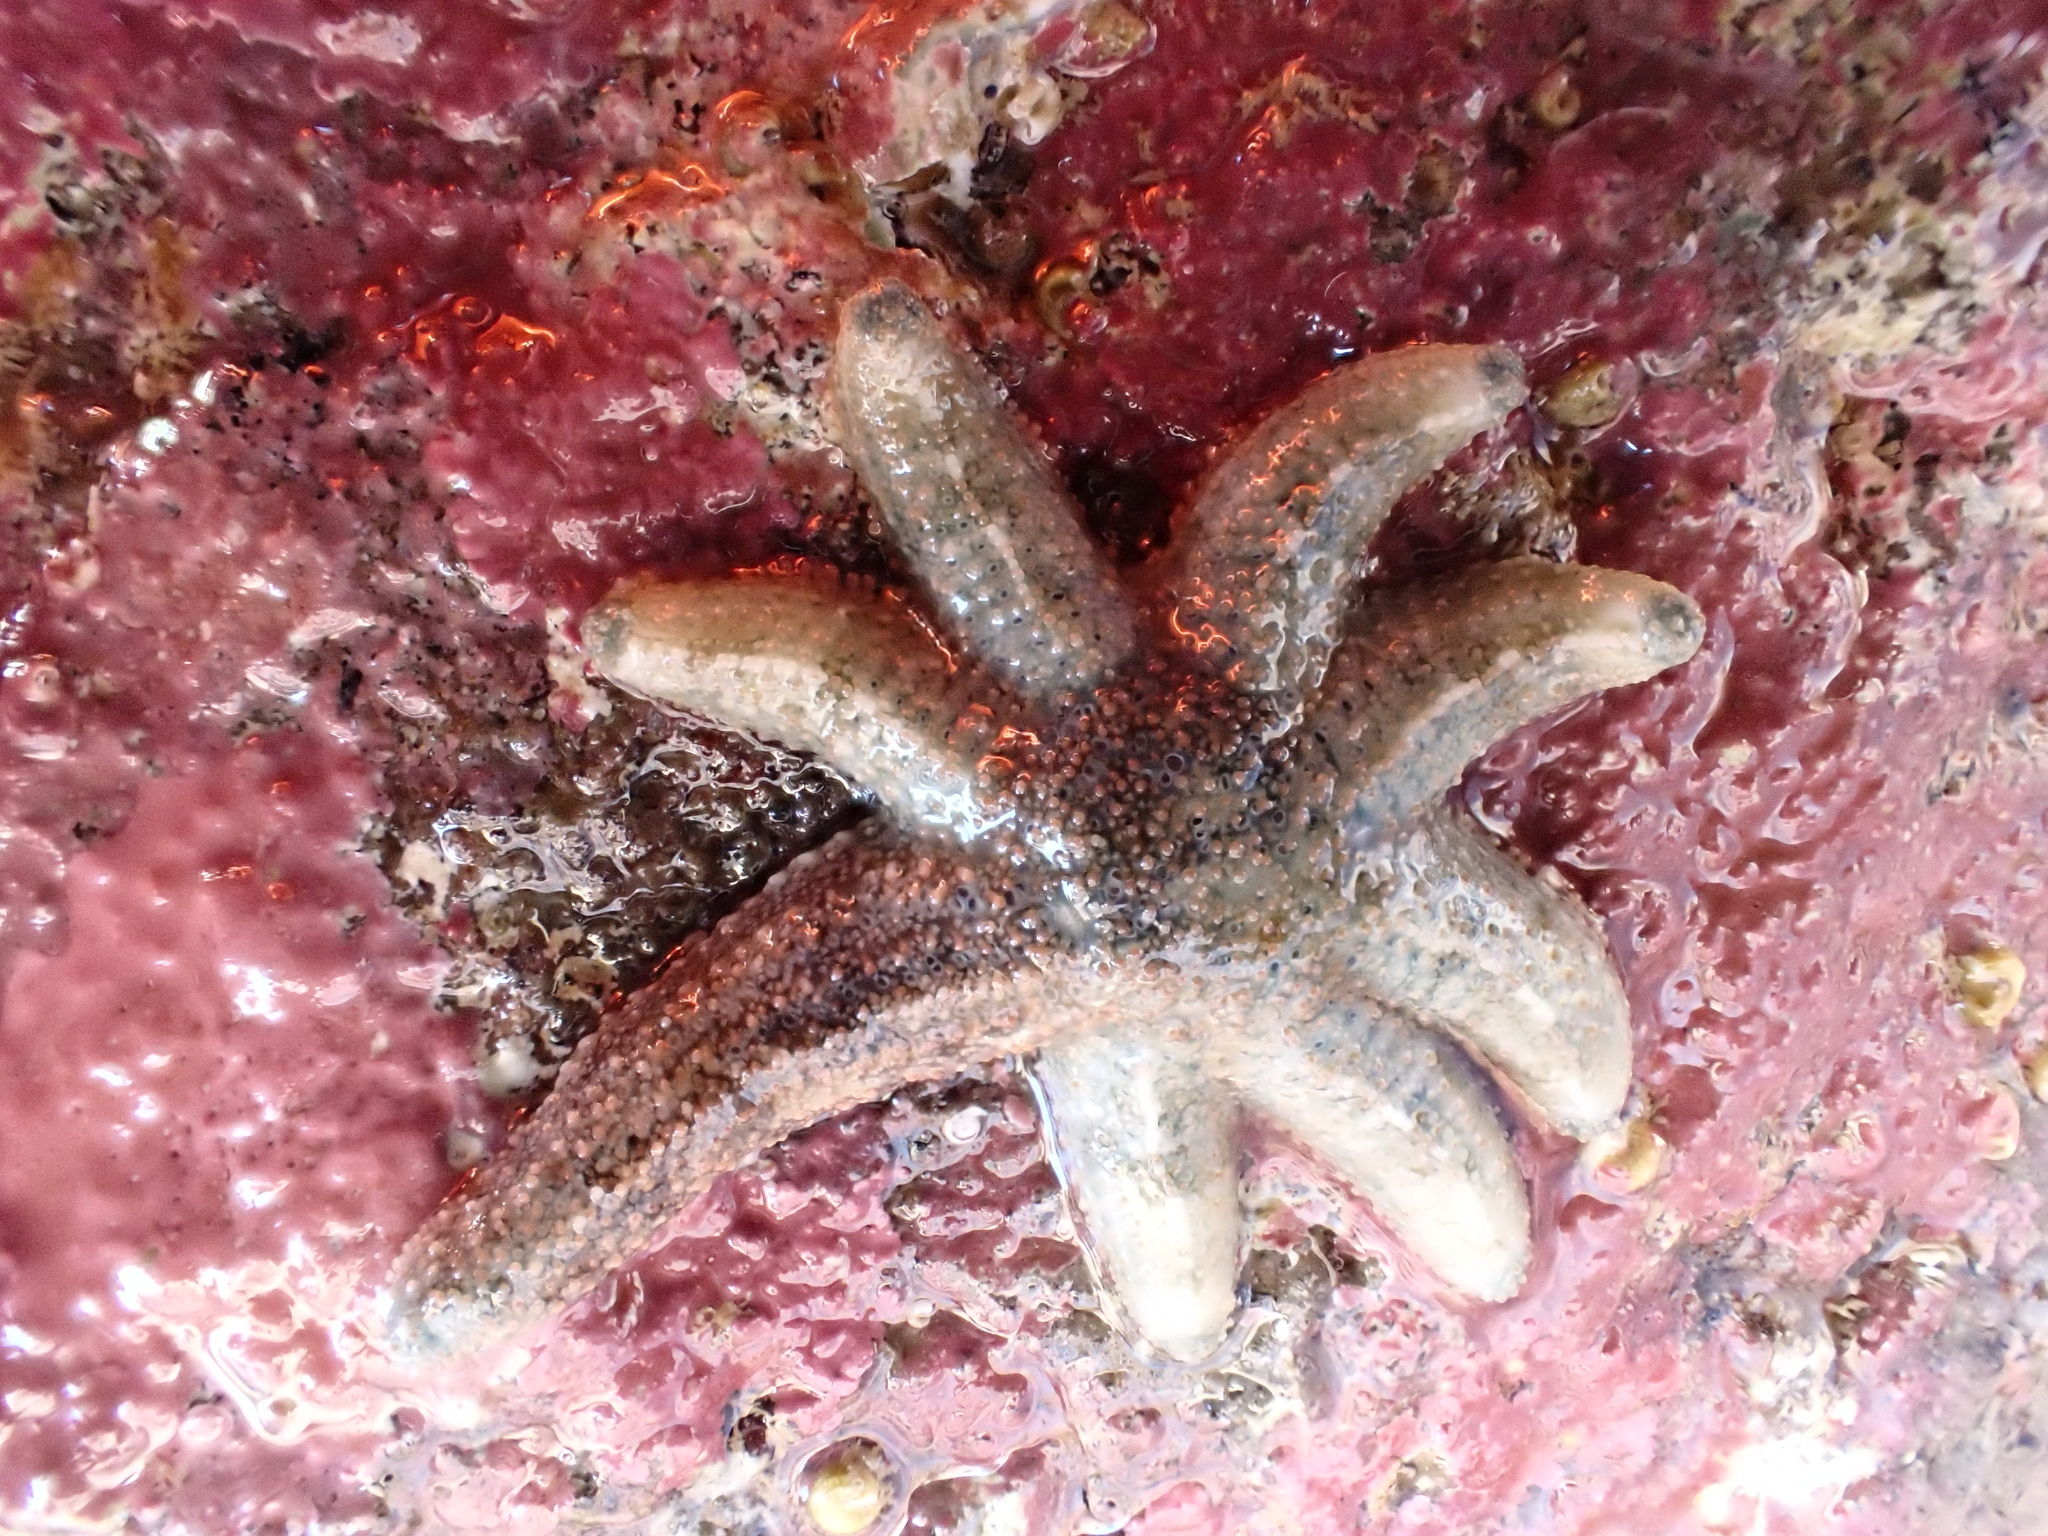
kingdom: Animalia
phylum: Echinodermata
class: Asteroidea
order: Forcipulatida
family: Stichasteridae
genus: Allostichaster
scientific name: Allostichaster polyplax
